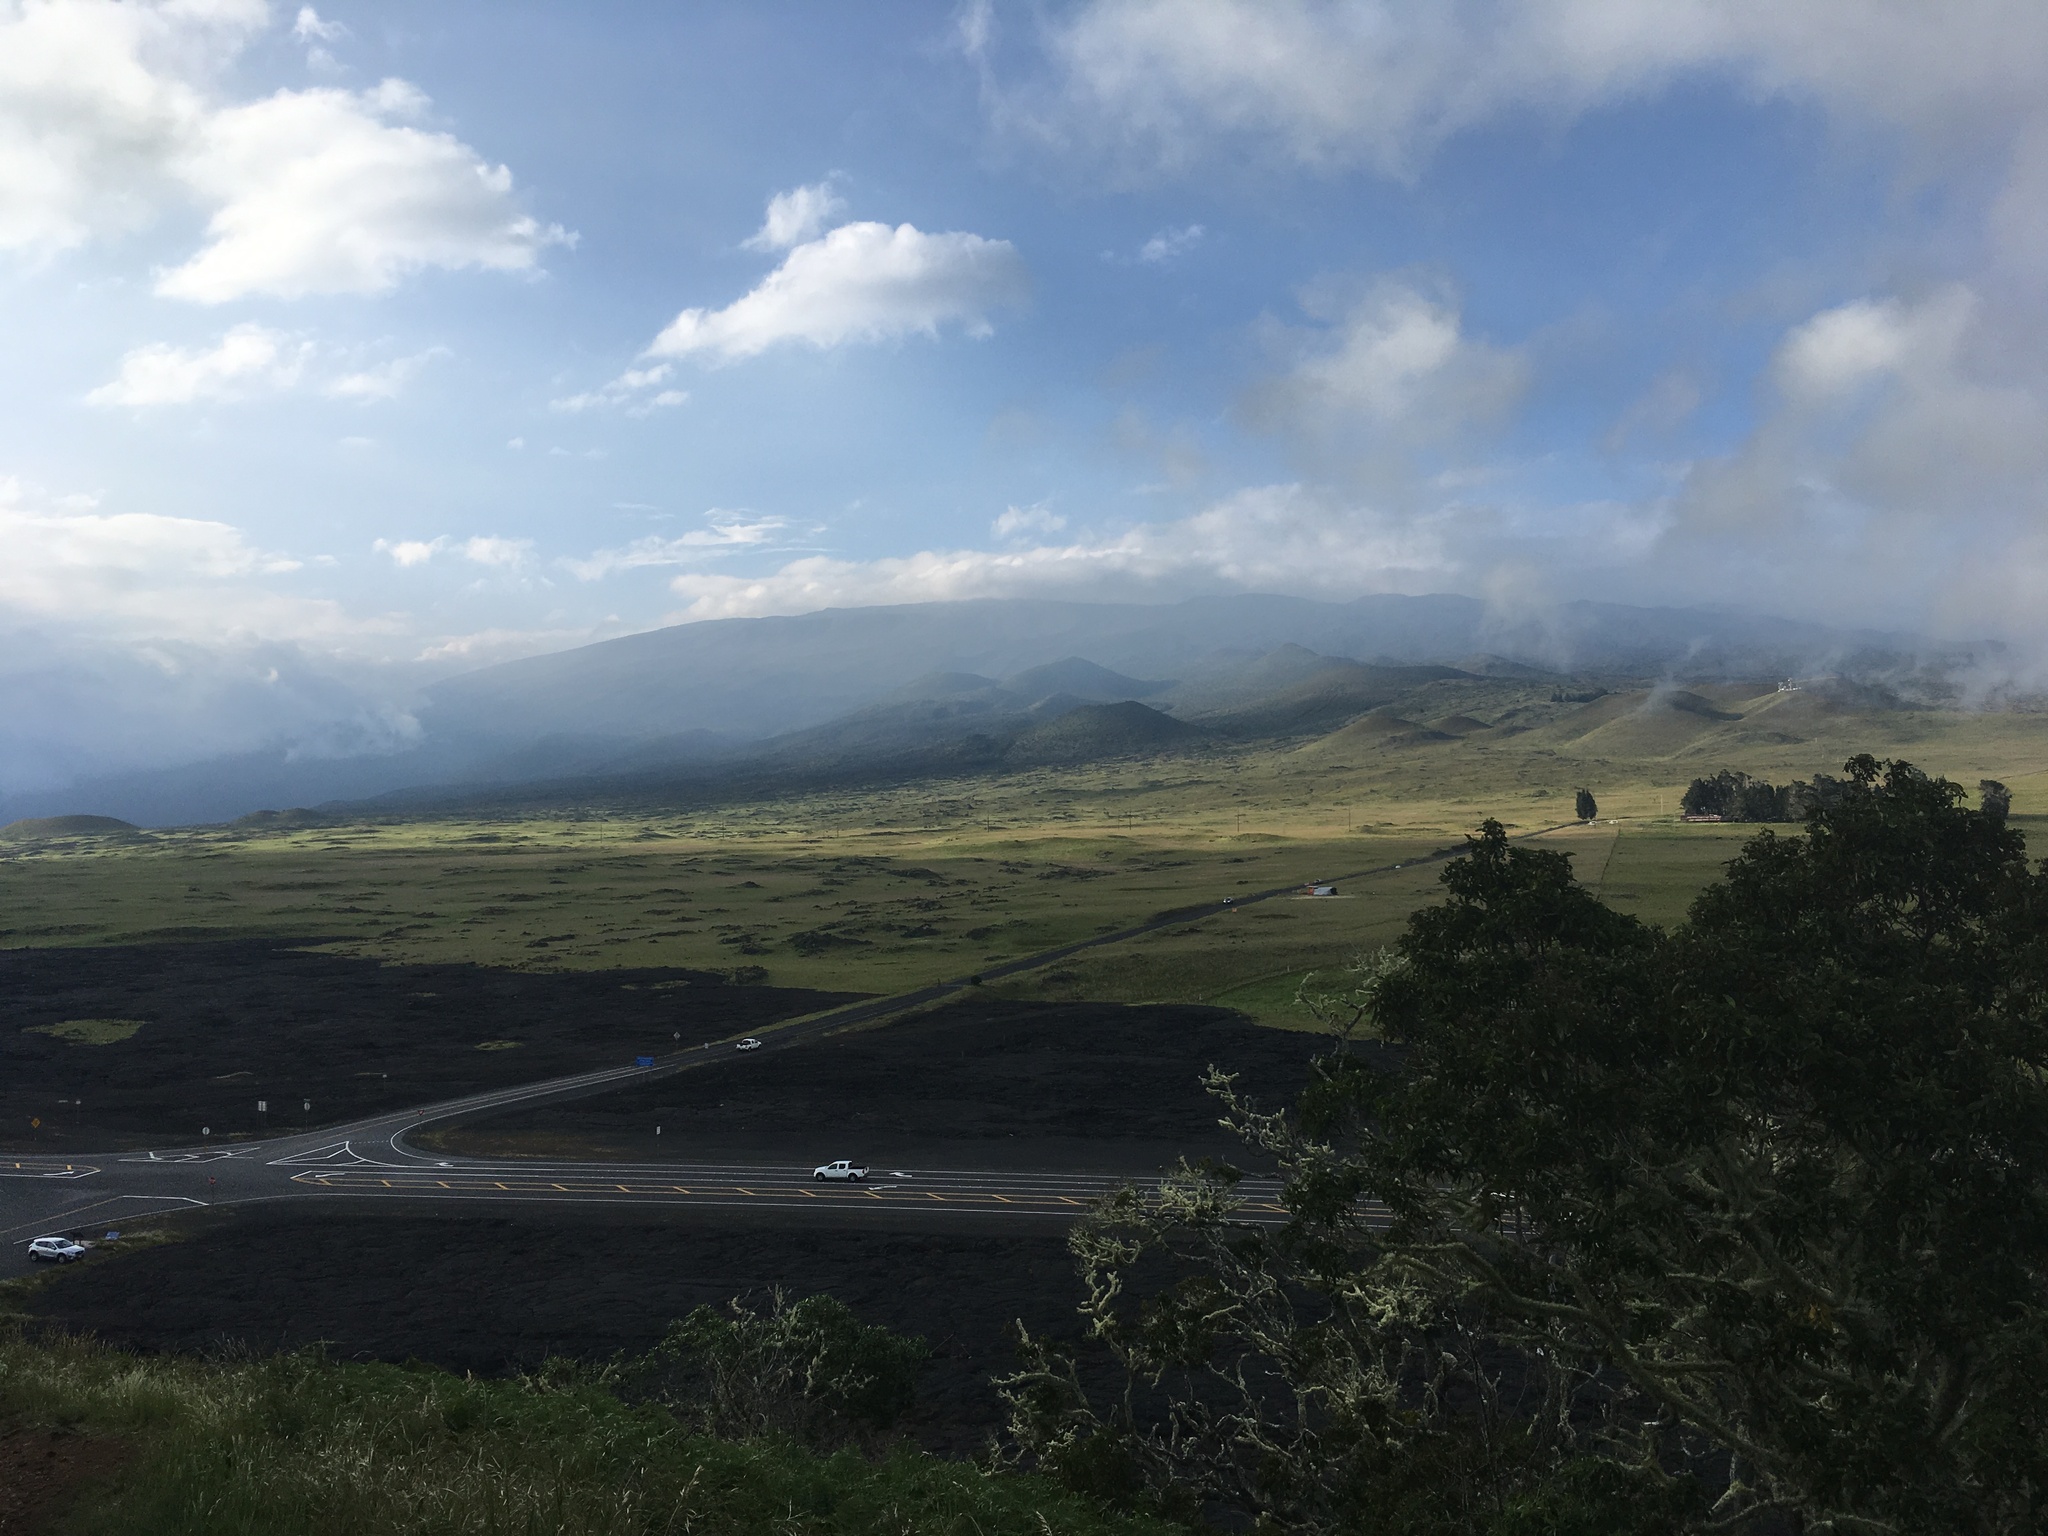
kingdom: Plantae
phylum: Tracheophyta
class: Magnoliopsida
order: Fabales
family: Fabaceae
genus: Acacia
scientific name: Acacia koa
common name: Gray koa
